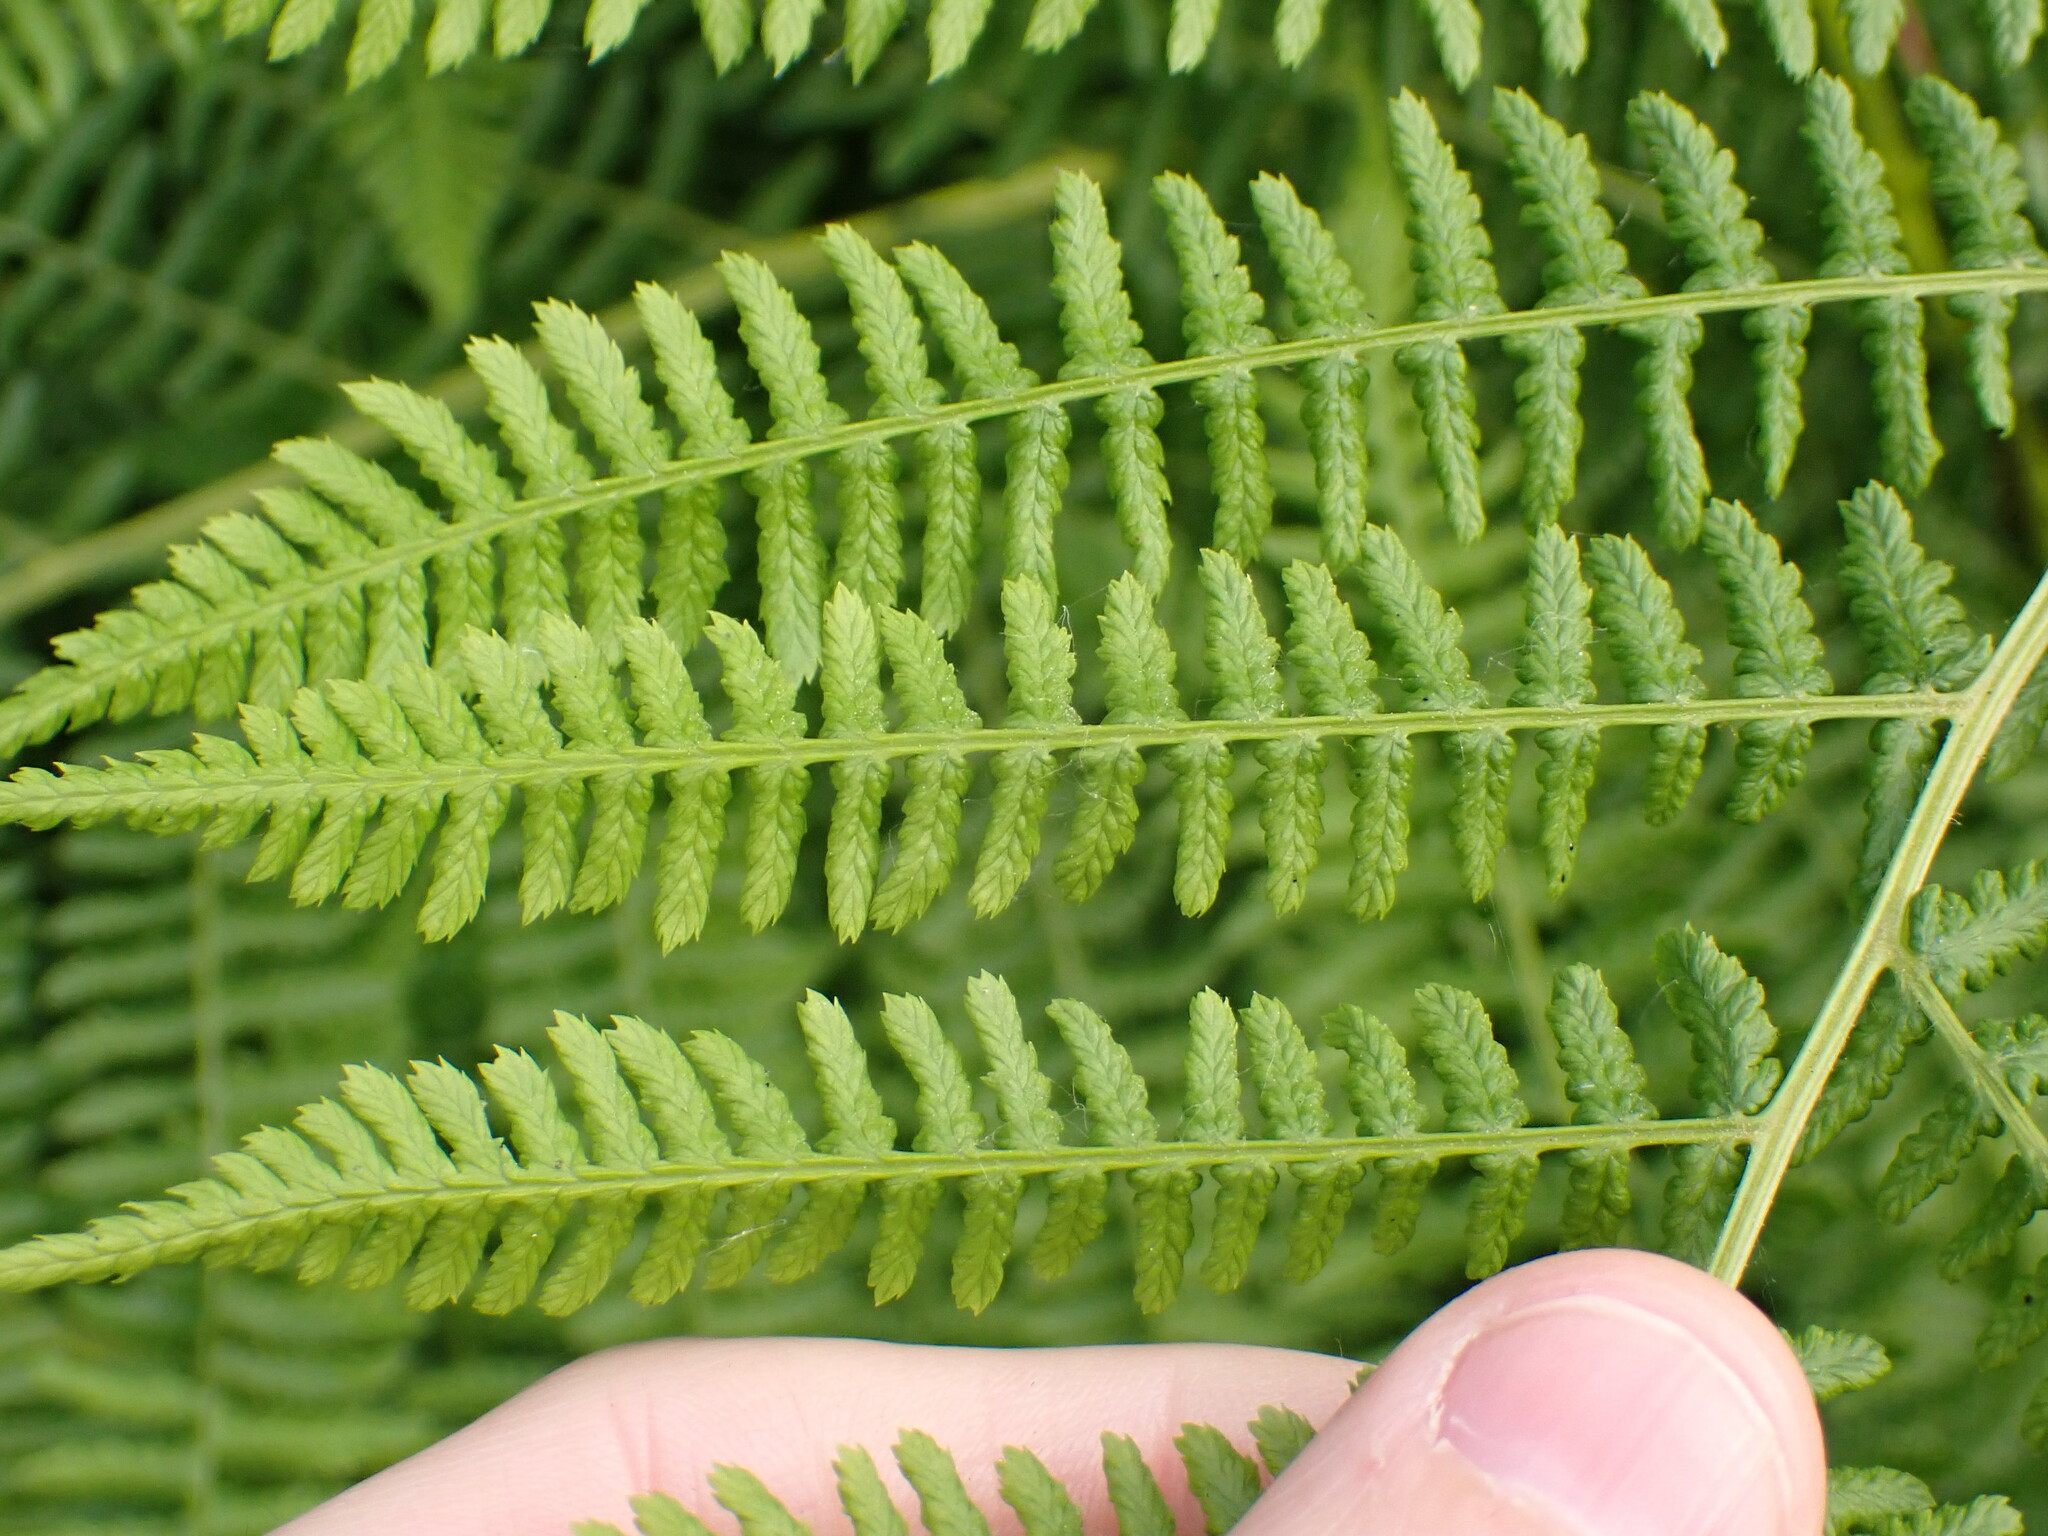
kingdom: Plantae
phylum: Tracheophyta
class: Polypodiopsida
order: Polypodiales
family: Athyriaceae
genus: Athyrium
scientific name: Athyrium filix-femina
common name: Lady fern
